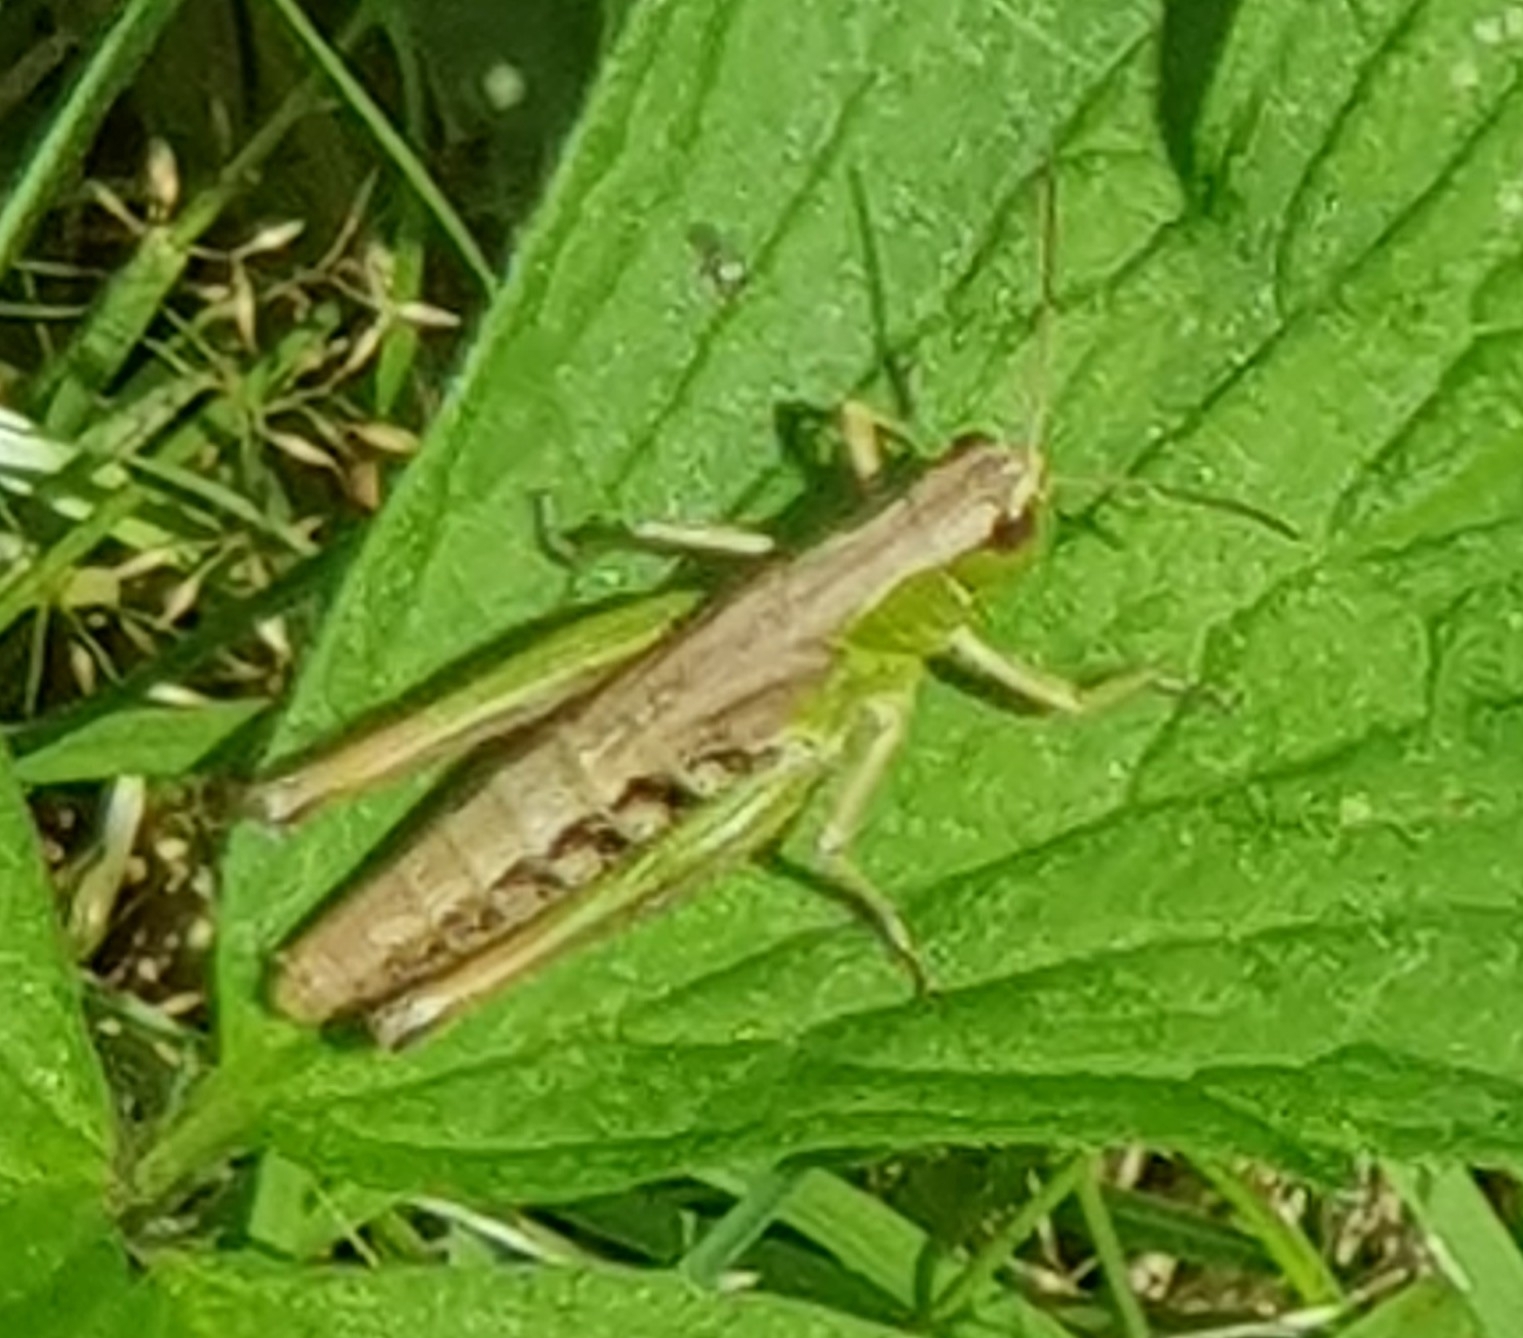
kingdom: Animalia
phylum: Arthropoda
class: Insecta
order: Orthoptera
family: Acrididae
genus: Pseudochorthippus
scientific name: Pseudochorthippus parallelus
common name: Meadow grasshopper
